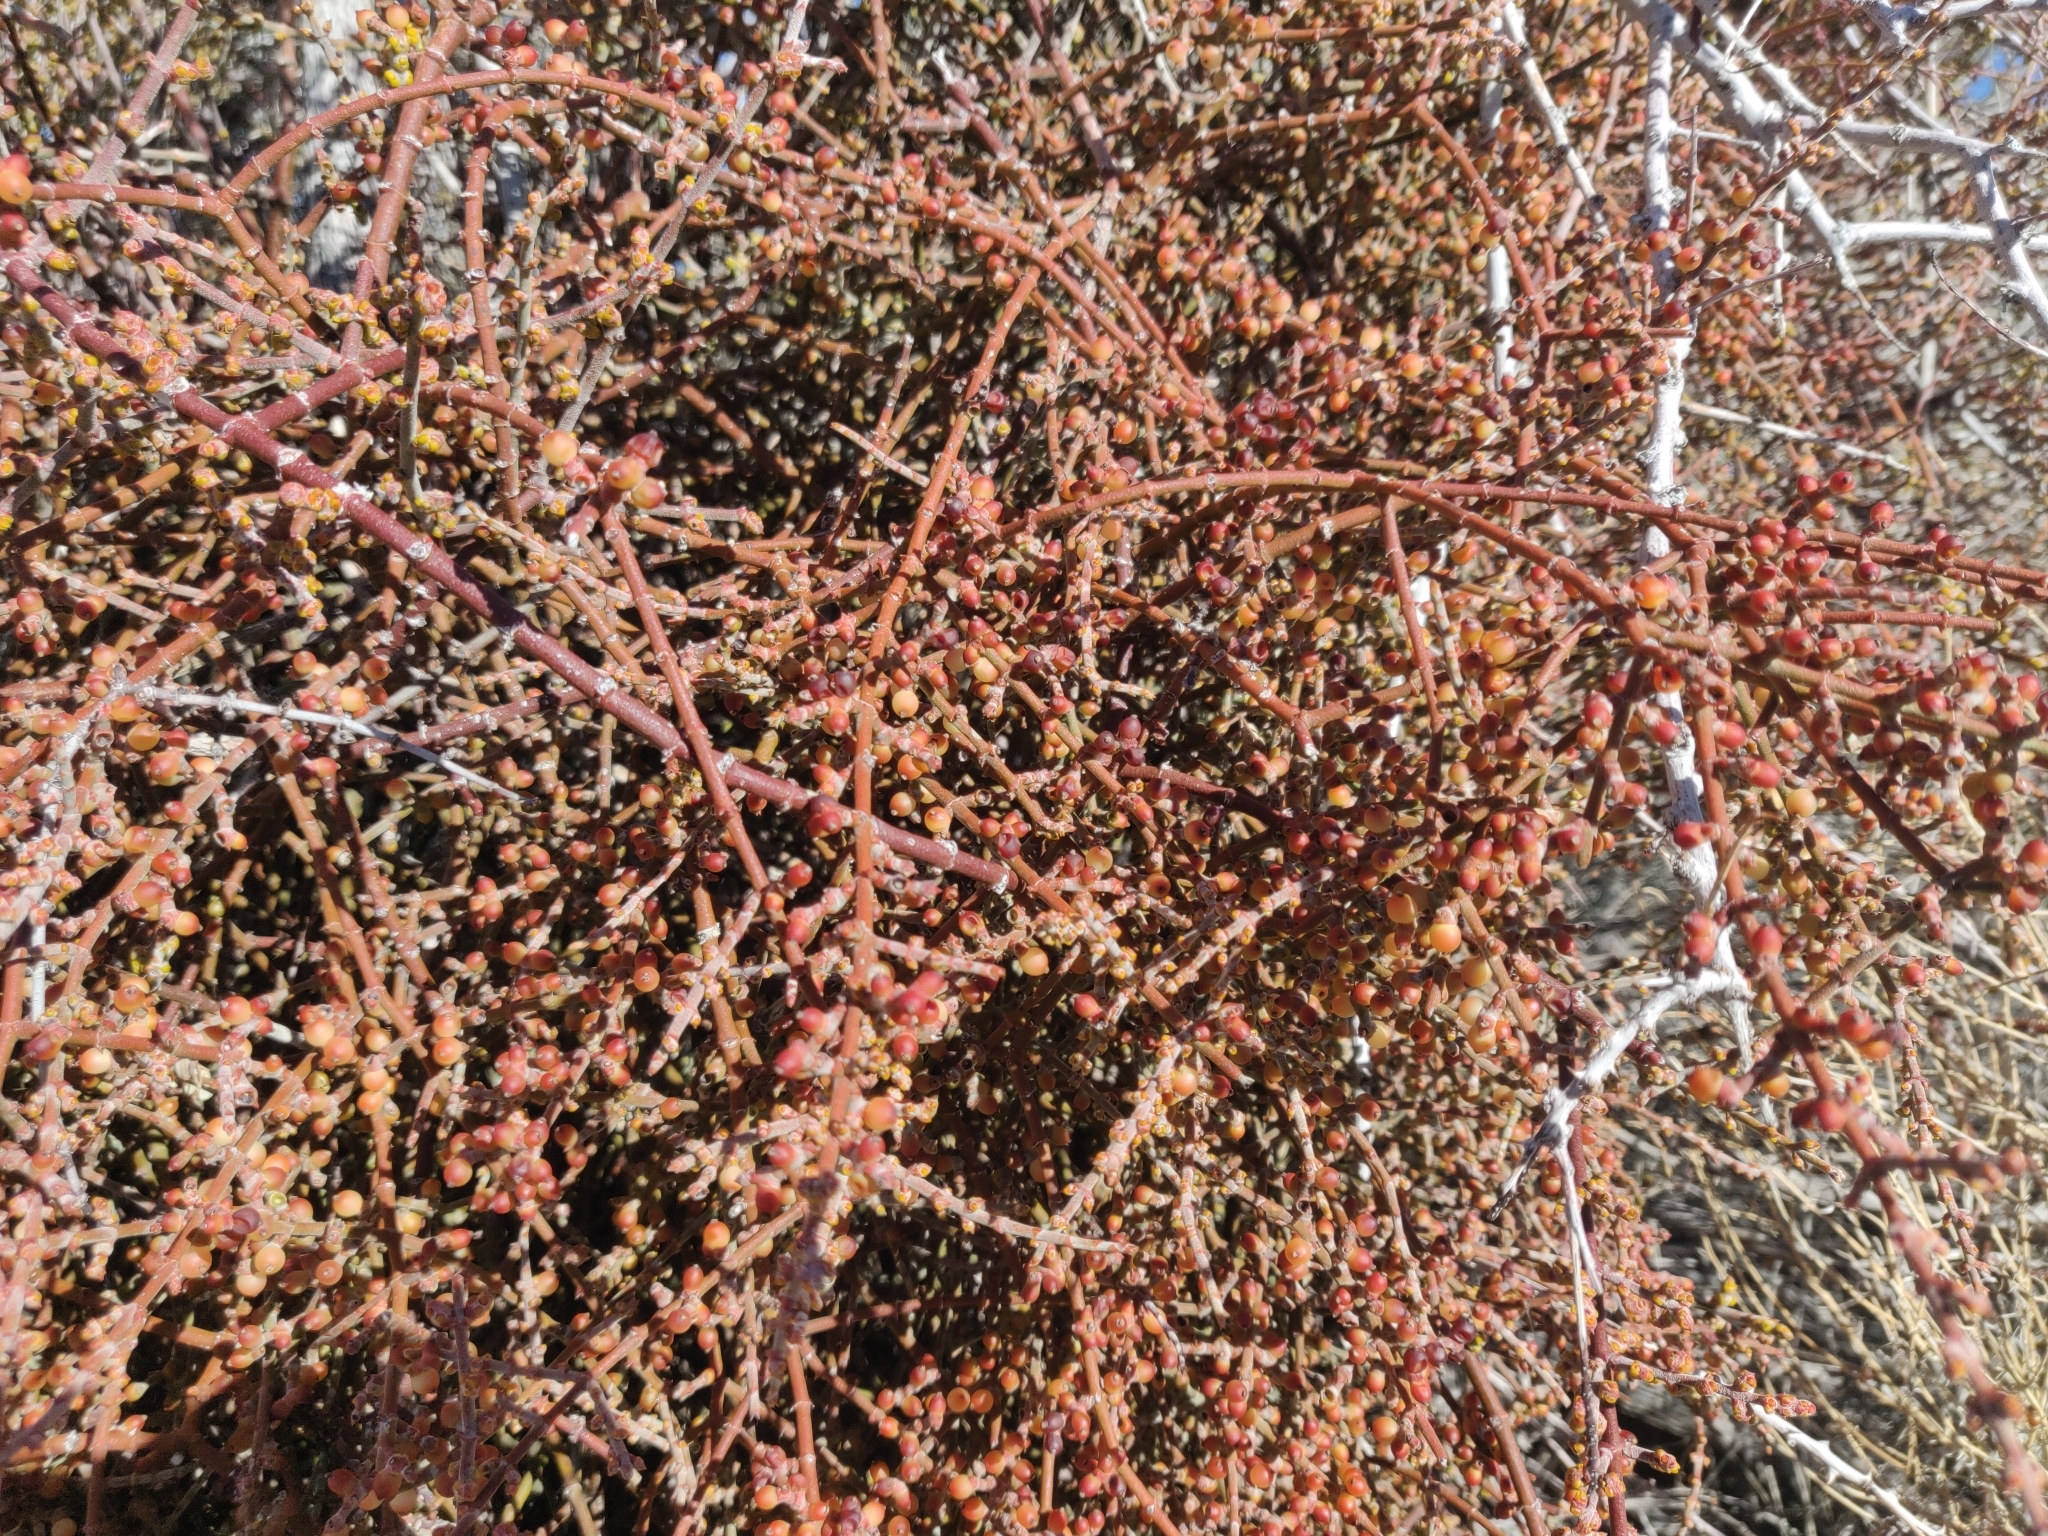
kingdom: Plantae
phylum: Tracheophyta
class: Magnoliopsida
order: Santalales
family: Viscaceae
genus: Phoradendron
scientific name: Phoradendron californicum
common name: Acacia mistletoe
